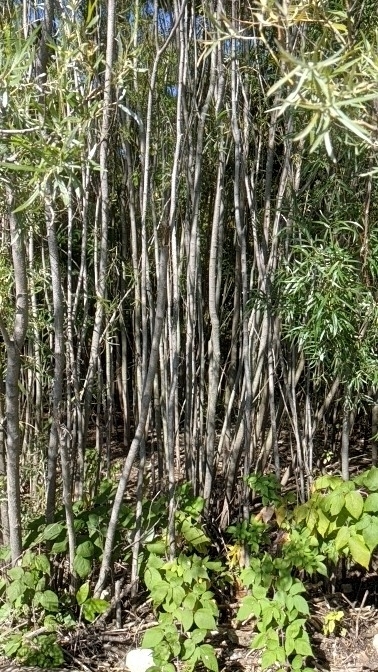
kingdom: Plantae
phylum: Tracheophyta
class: Magnoliopsida
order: Malpighiales
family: Salicaceae
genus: Salix
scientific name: Salix interior
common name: Sandbar willow
